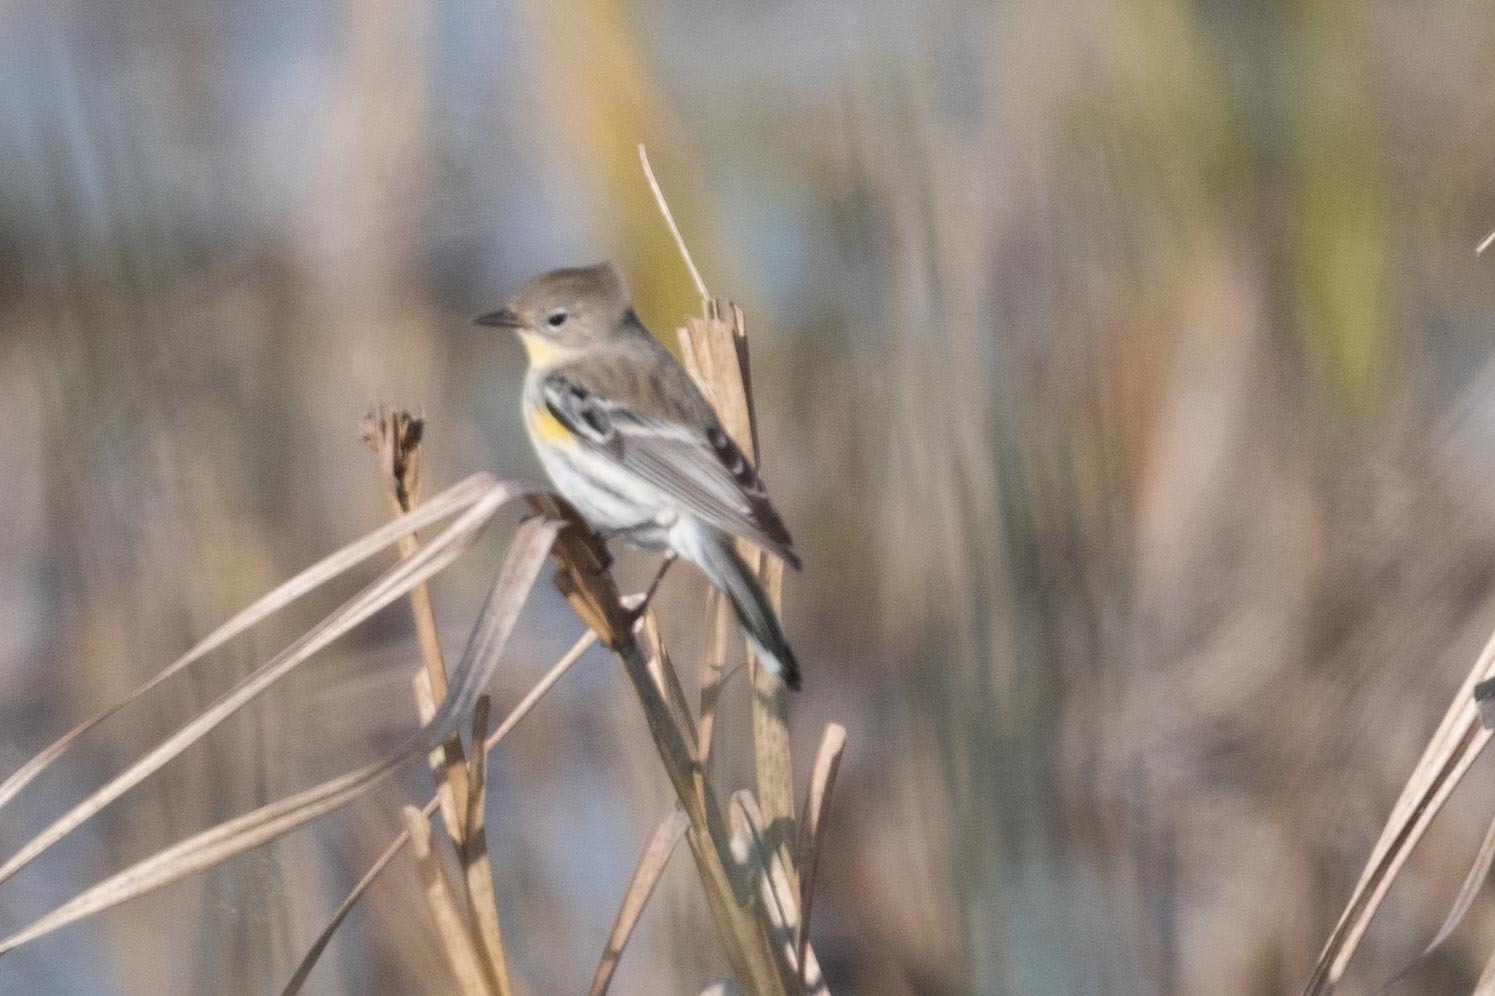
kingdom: Animalia
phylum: Chordata
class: Aves
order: Passeriformes
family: Parulidae
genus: Setophaga
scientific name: Setophaga coronata
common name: Myrtle warbler
